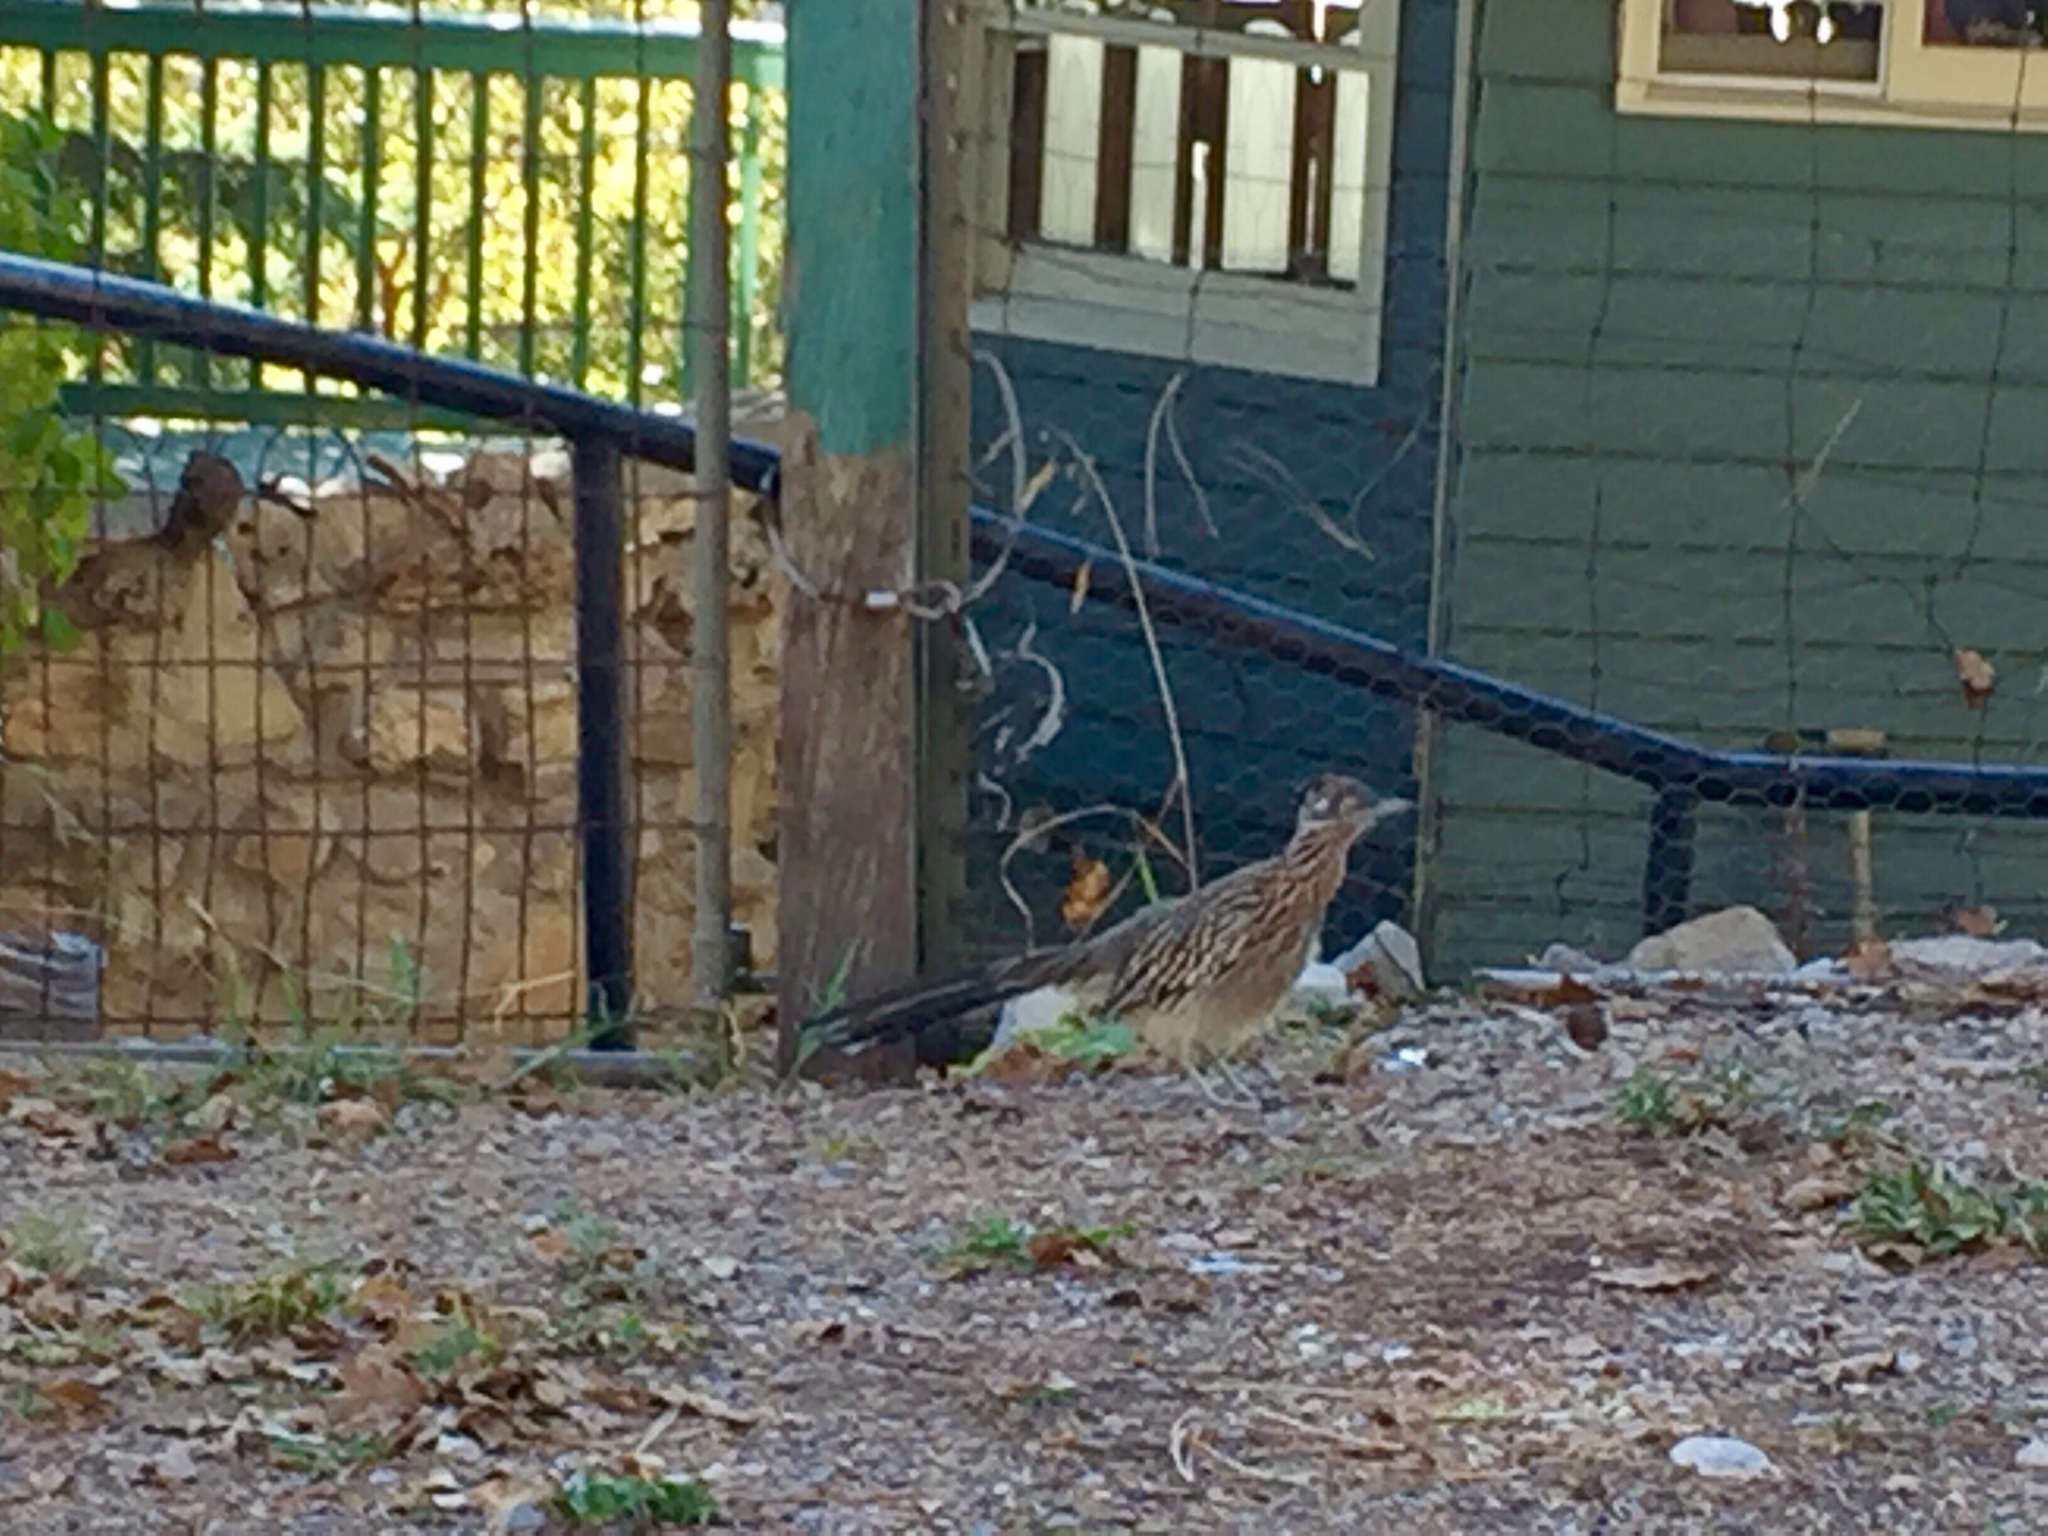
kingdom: Animalia
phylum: Chordata
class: Aves
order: Cuculiformes
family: Cuculidae
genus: Geococcyx
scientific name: Geococcyx californianus
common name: Greater roadrunner
